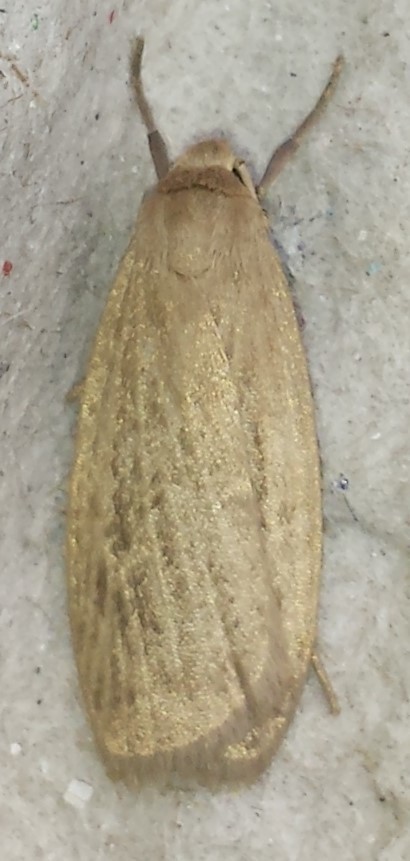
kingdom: Animalia
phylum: Arthropoda
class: Insecta
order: Lepidoptera
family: Erebidae
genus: Crambidia
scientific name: Crambidia pallida
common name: Pale lichen moth
